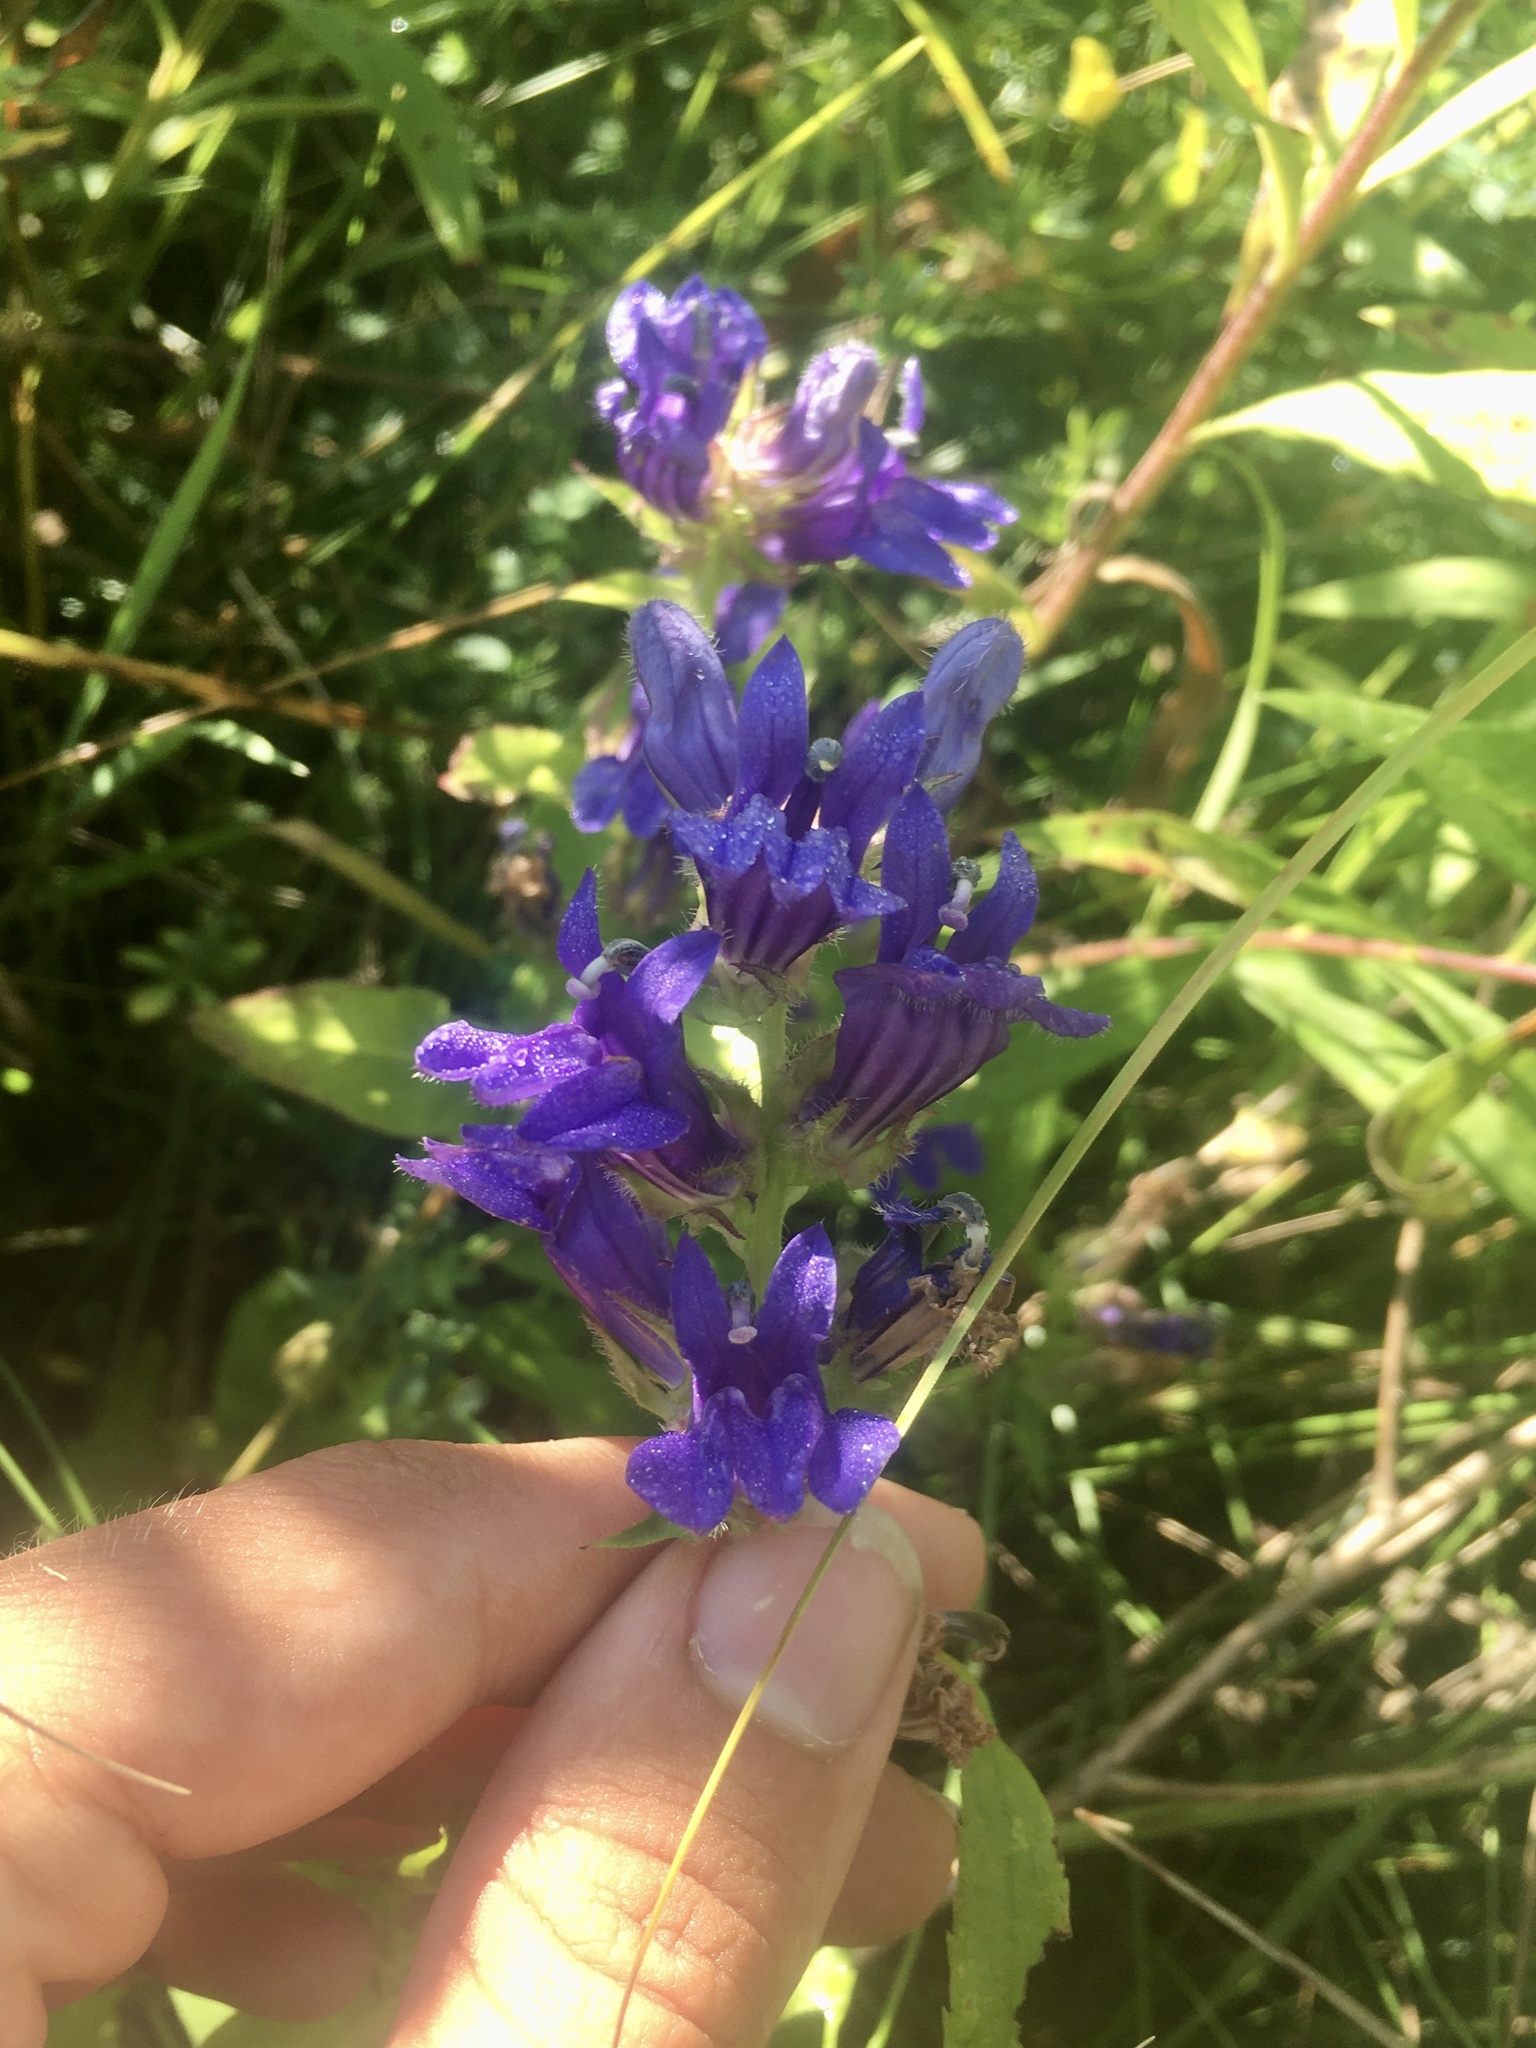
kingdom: Plantae
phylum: Tracheophyta
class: Magnoliopsida
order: Asterales
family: Campanulaceae
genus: Lobelia
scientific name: Lobelia siphilitica
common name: Great lobelia
